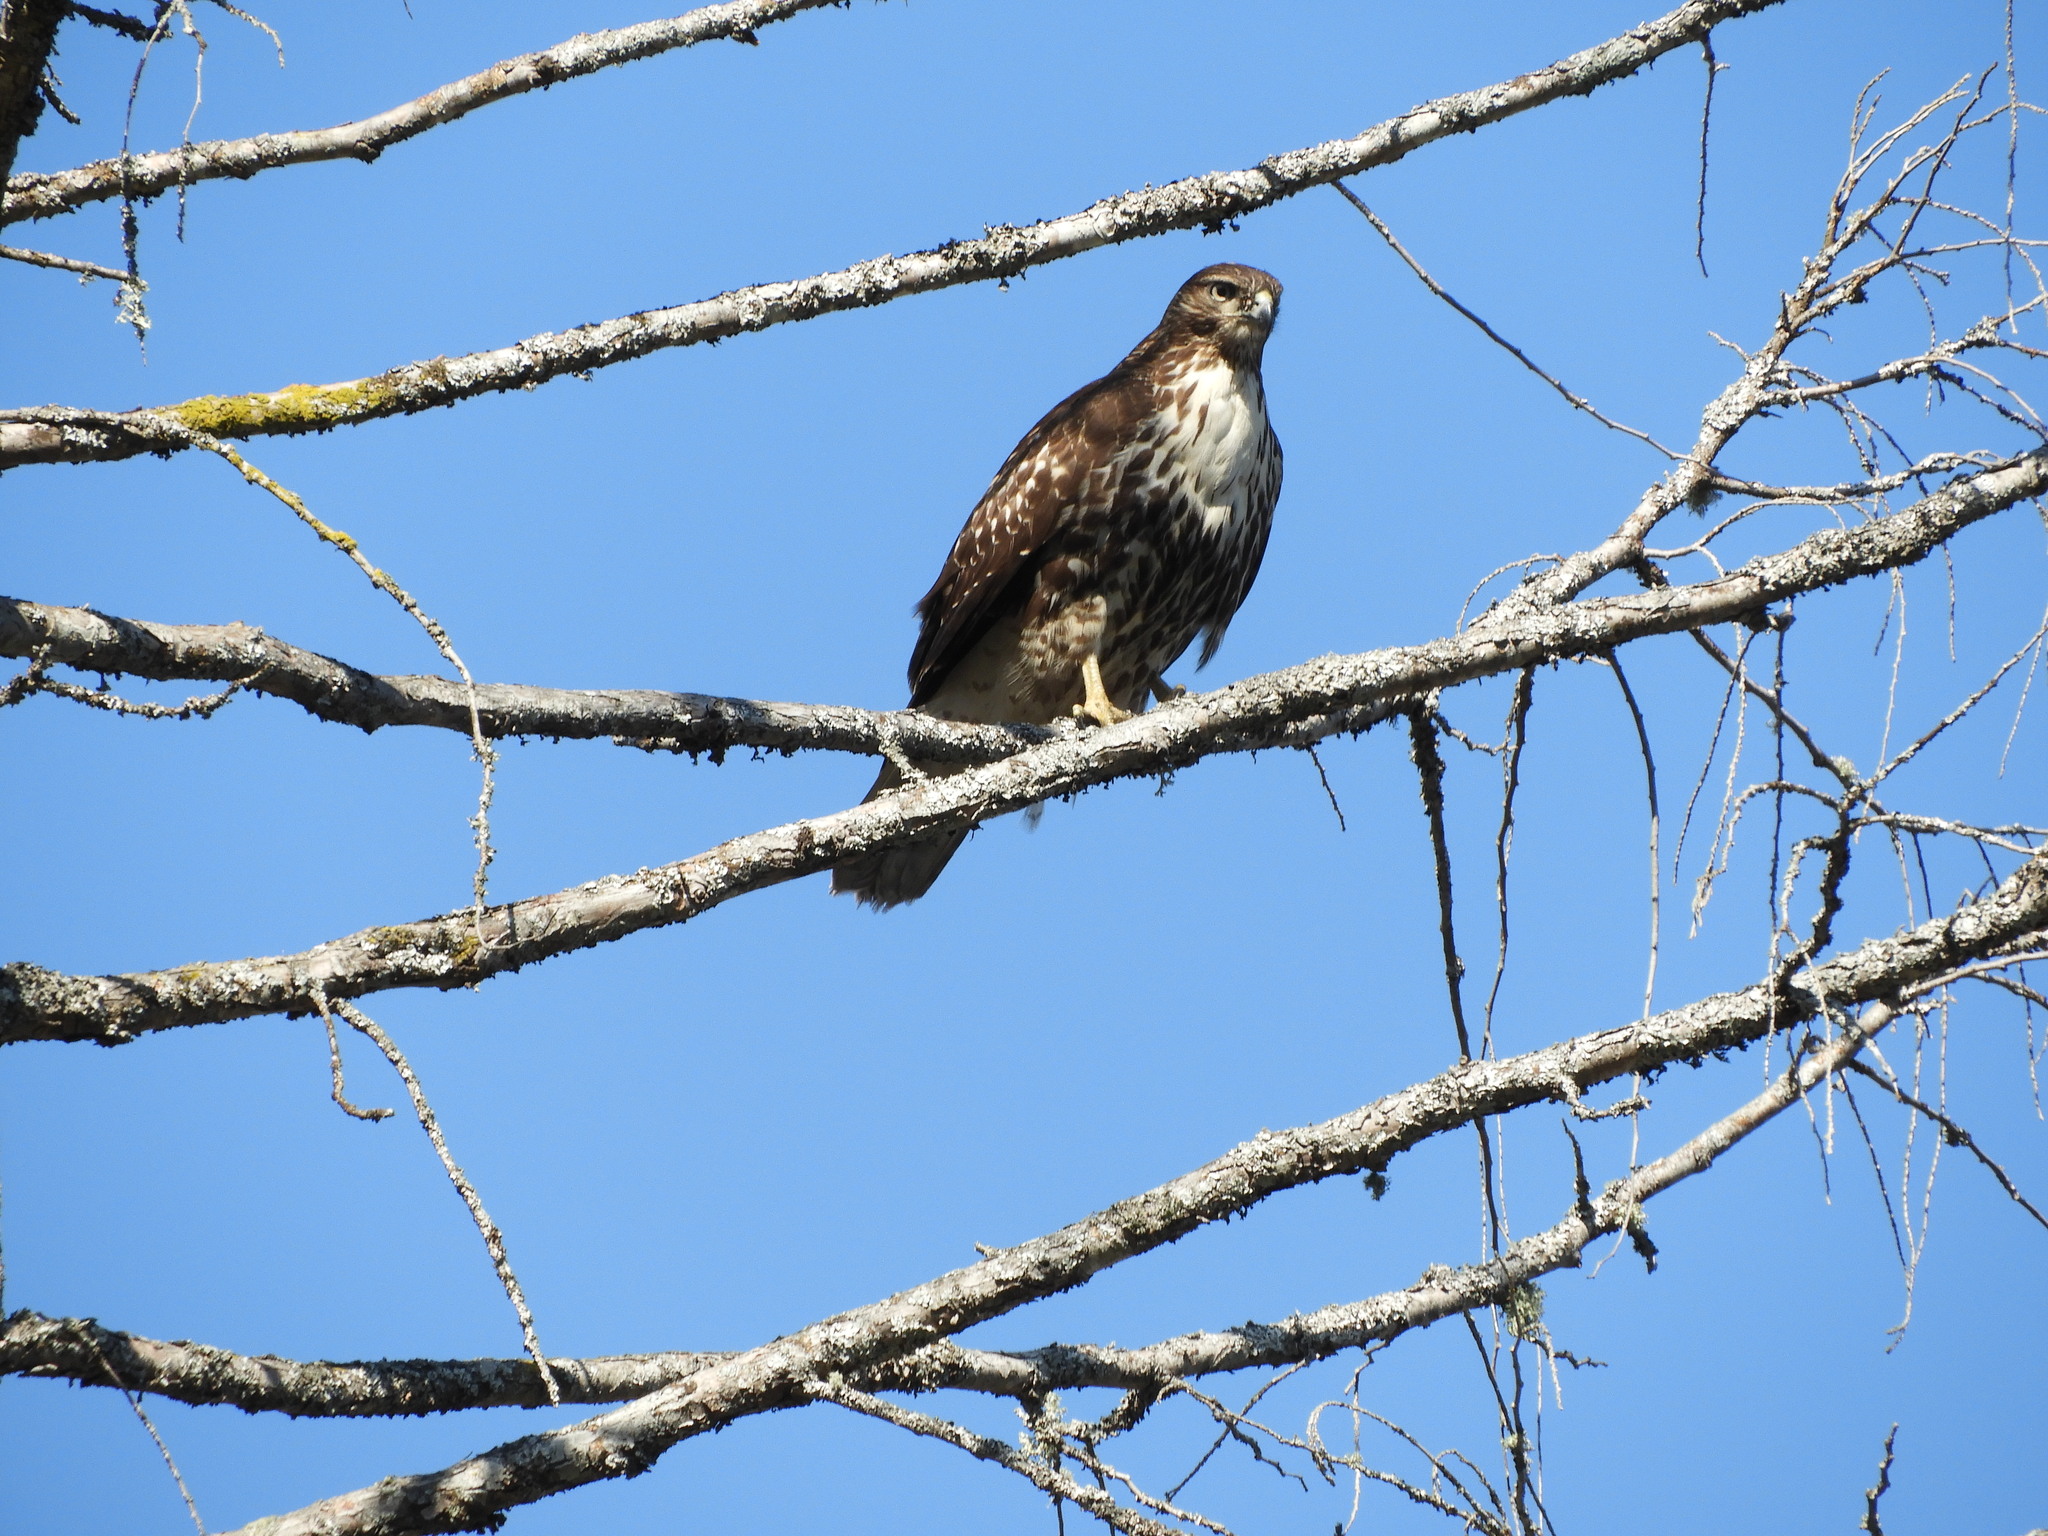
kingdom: Animalia
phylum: Chordata
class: Aves
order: Accipitriformes
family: Accipitridae
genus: Buteo
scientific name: Buteo jamaicensis
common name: Red-tailed hawk
